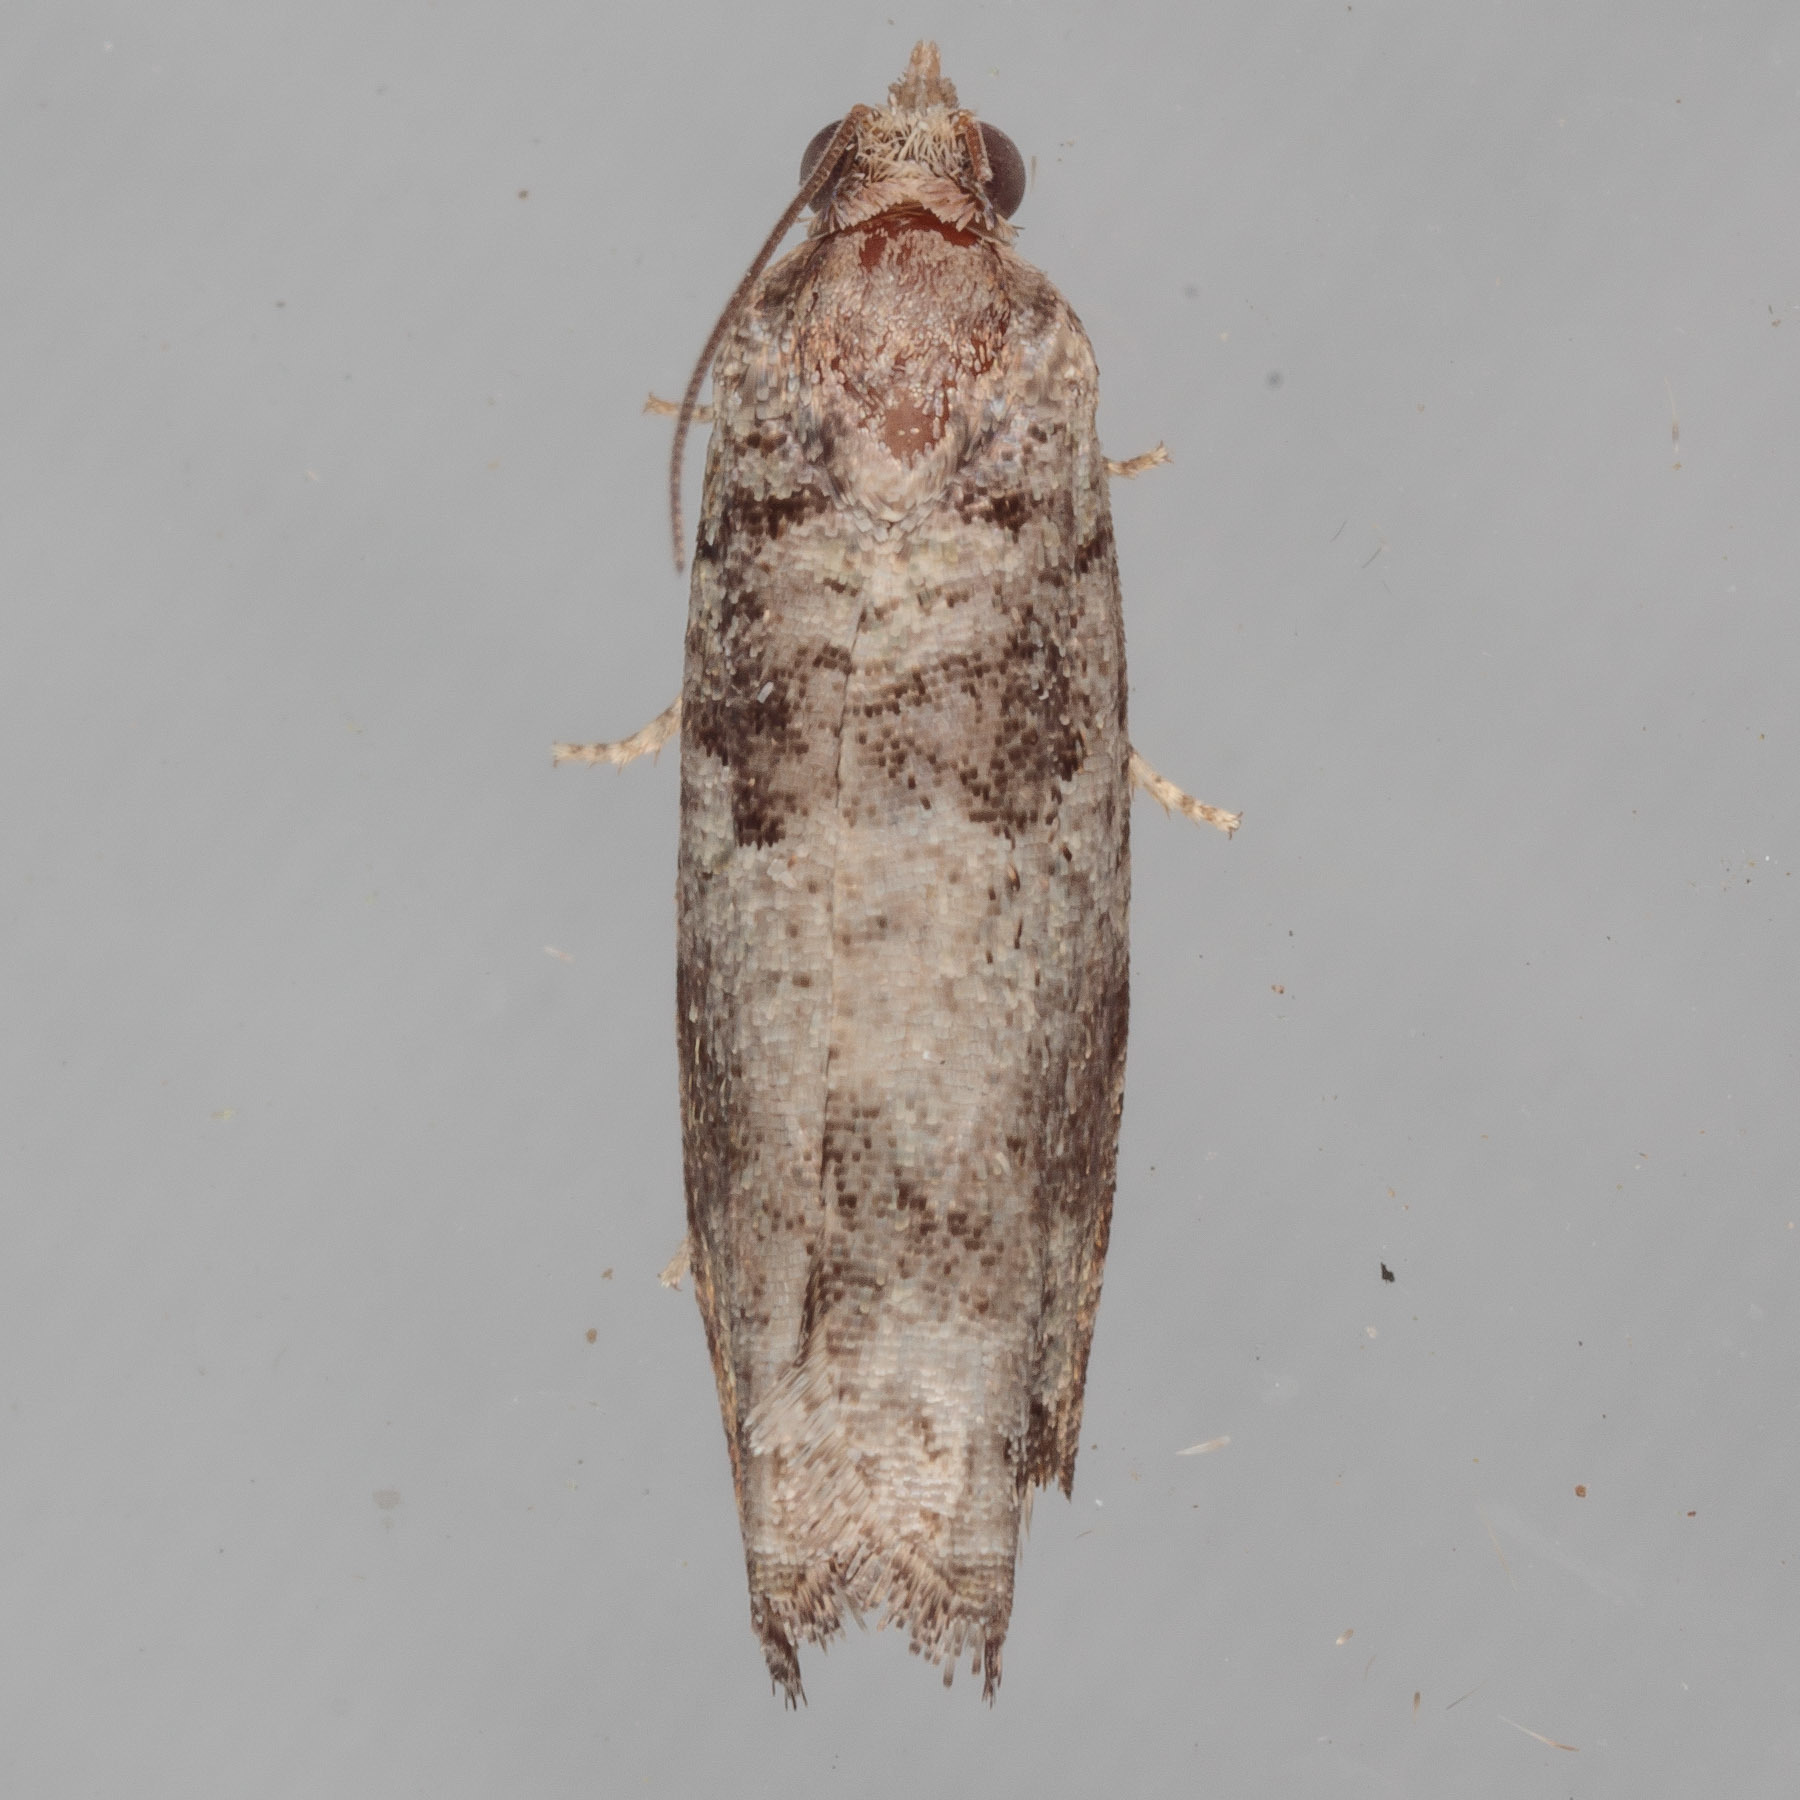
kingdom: Animalia
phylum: Arthropoda
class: Insecta
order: Lepidoptera
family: Tortricidae
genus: Pseudexentera
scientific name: Pseudexentera knudsoni
